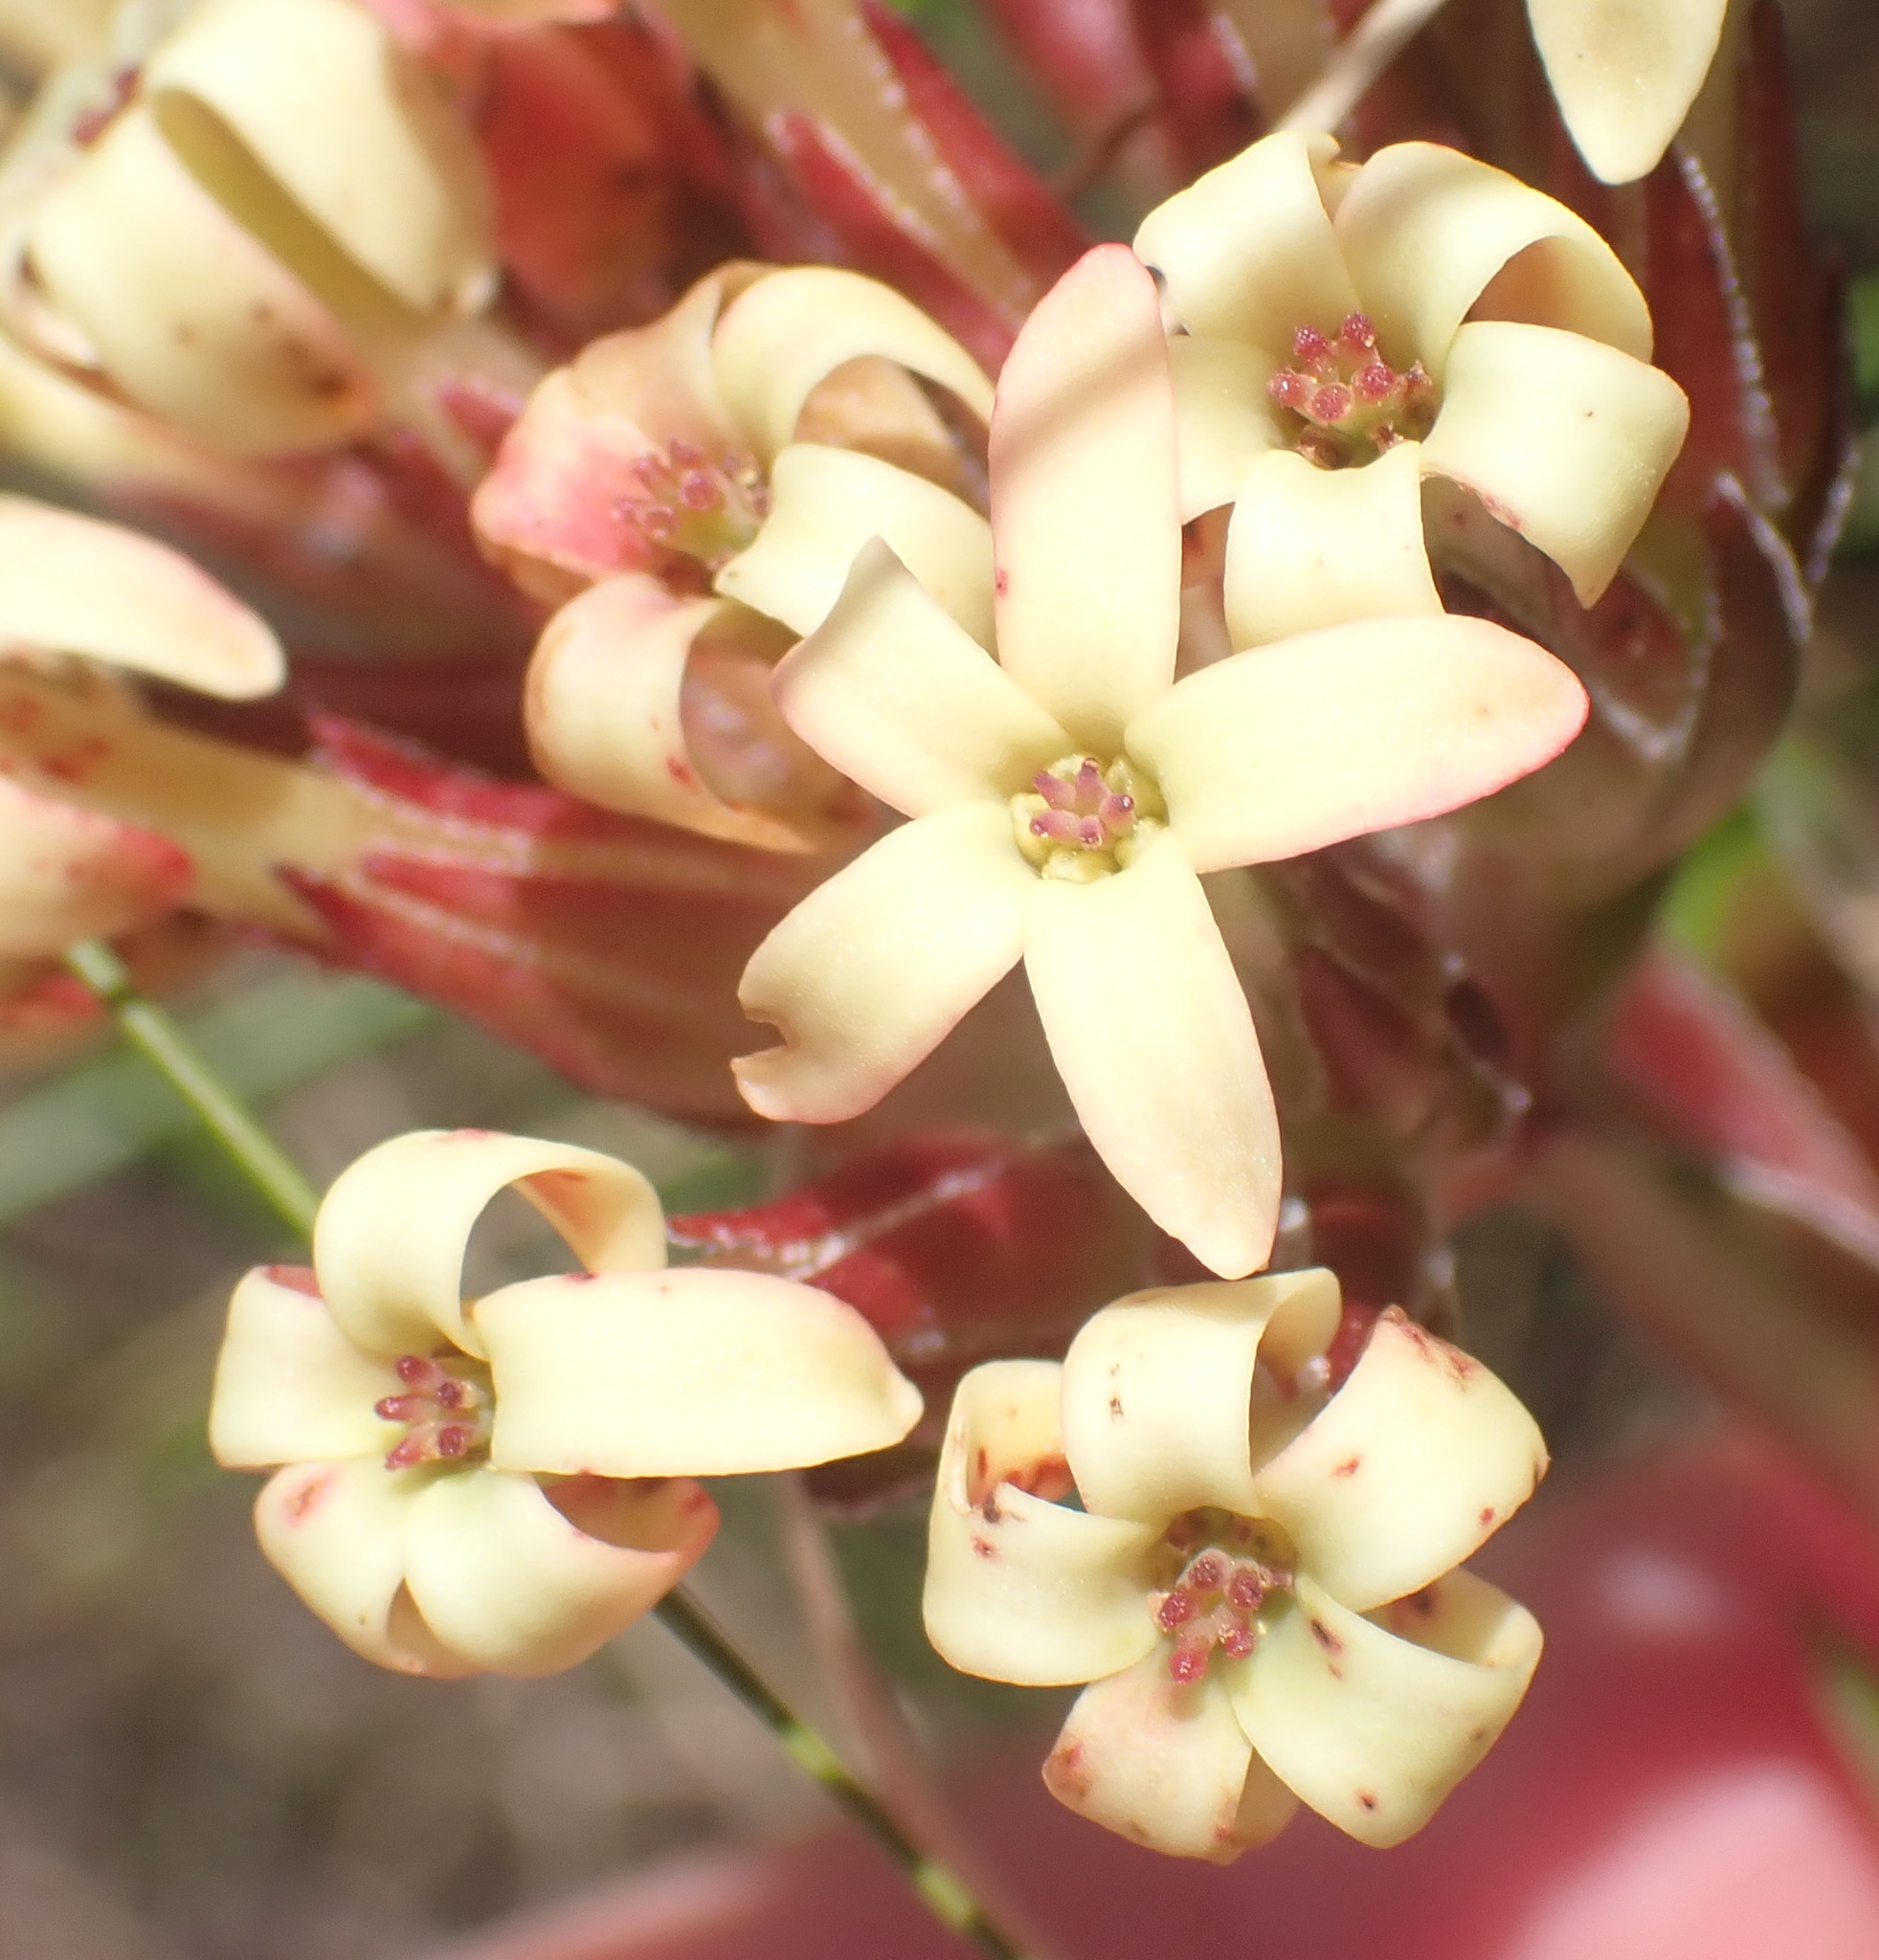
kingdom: Plantae
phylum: Tracheophyta
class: Magnoliopsida
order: Saxifragales
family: Crassulaceae
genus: Crassula
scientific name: Crassula fascicularis
